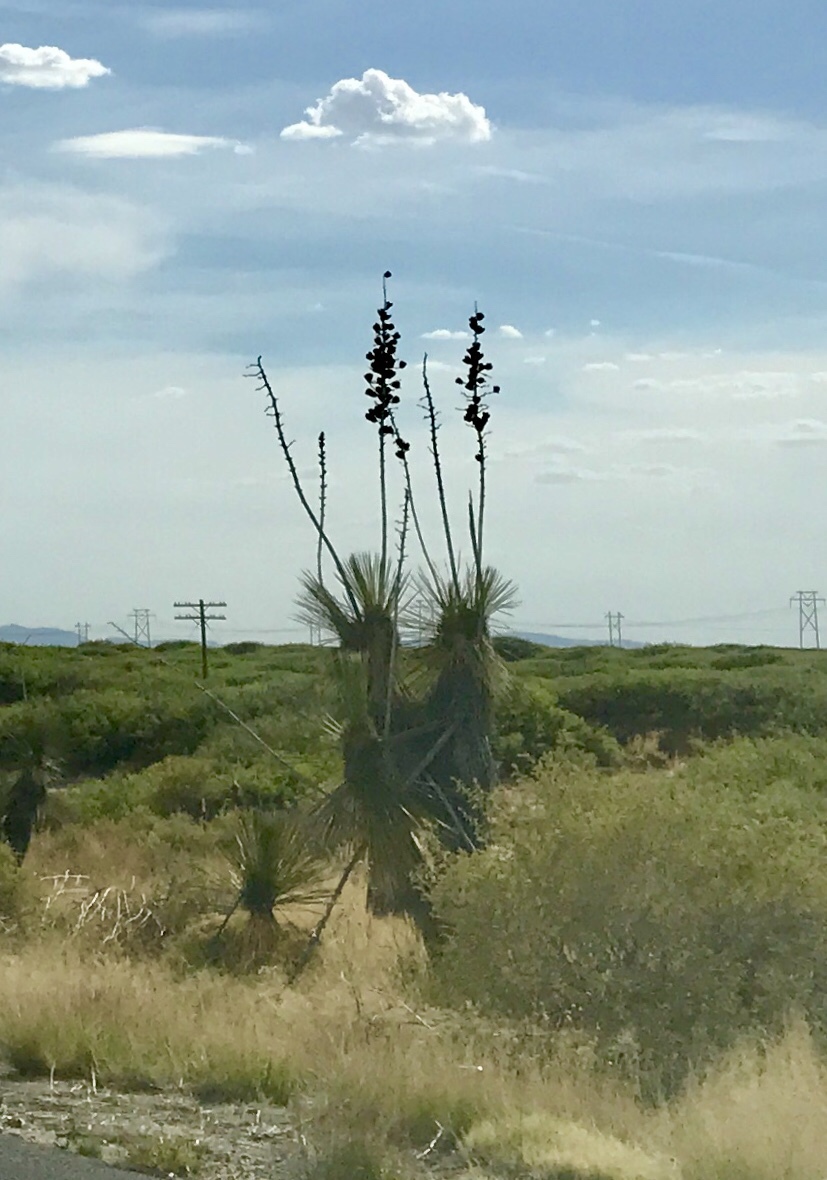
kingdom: Plantae
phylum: Tracheophyta
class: Liliopsida
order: Asparagales
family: Asparagaceae
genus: Yucca
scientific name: Yucca elata
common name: Palmella
